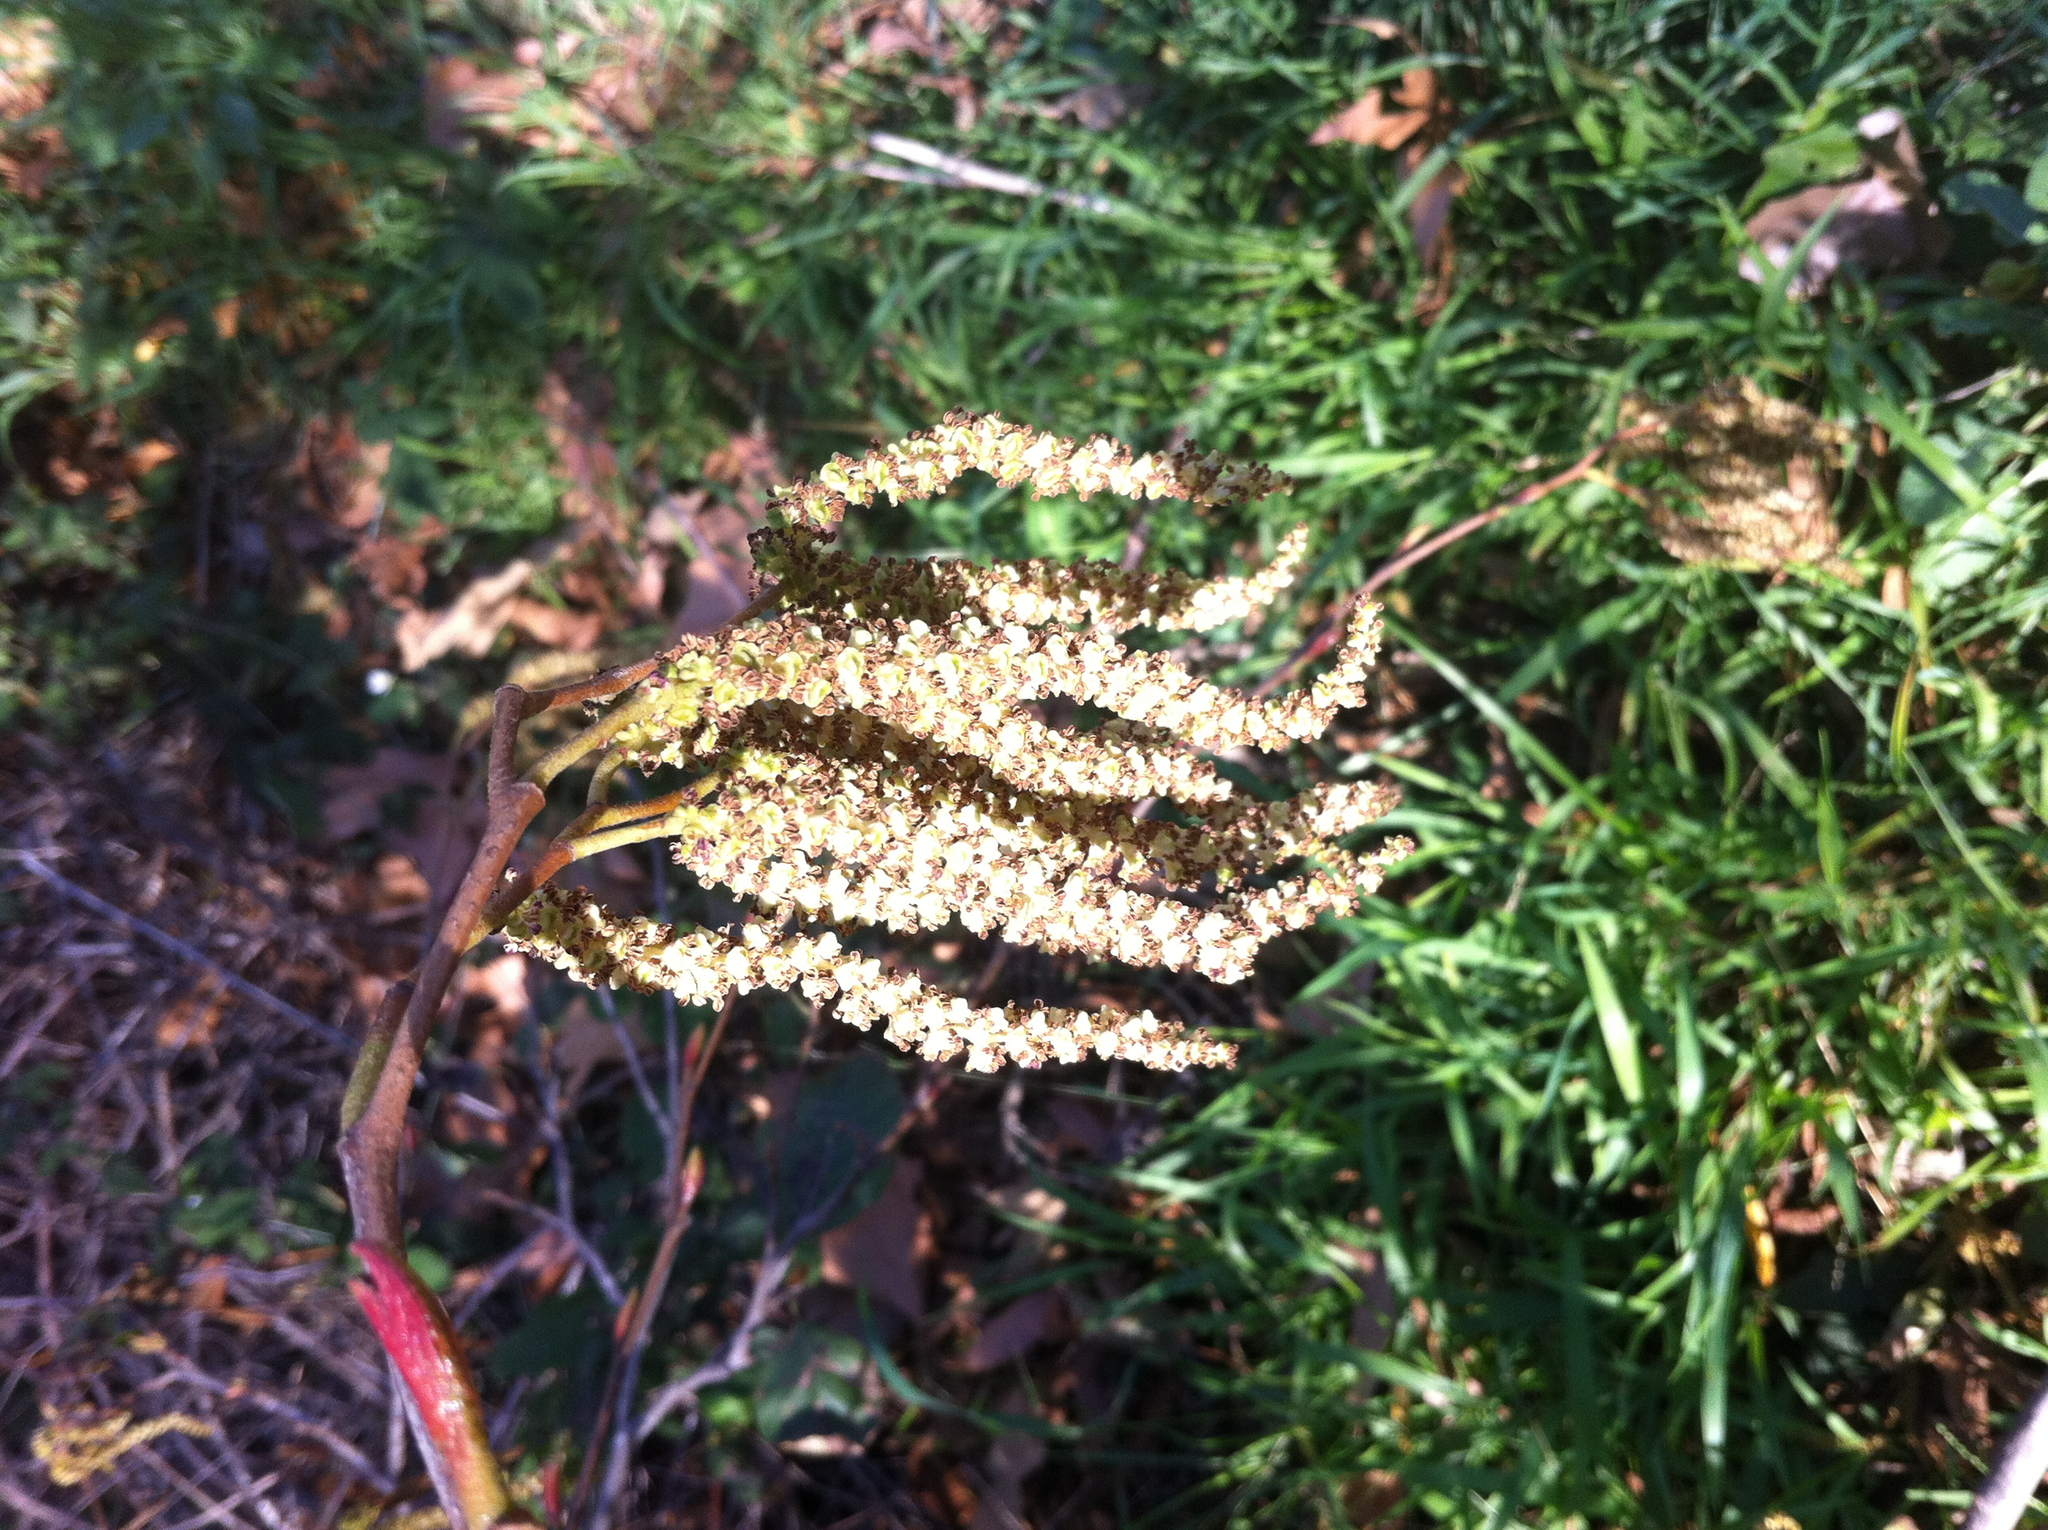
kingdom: Plantae
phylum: Tracheophyta
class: Magnoliopsida
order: Fagales
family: Betulaceae
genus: Alnus
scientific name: Alnus rhombifolia
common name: California alder
